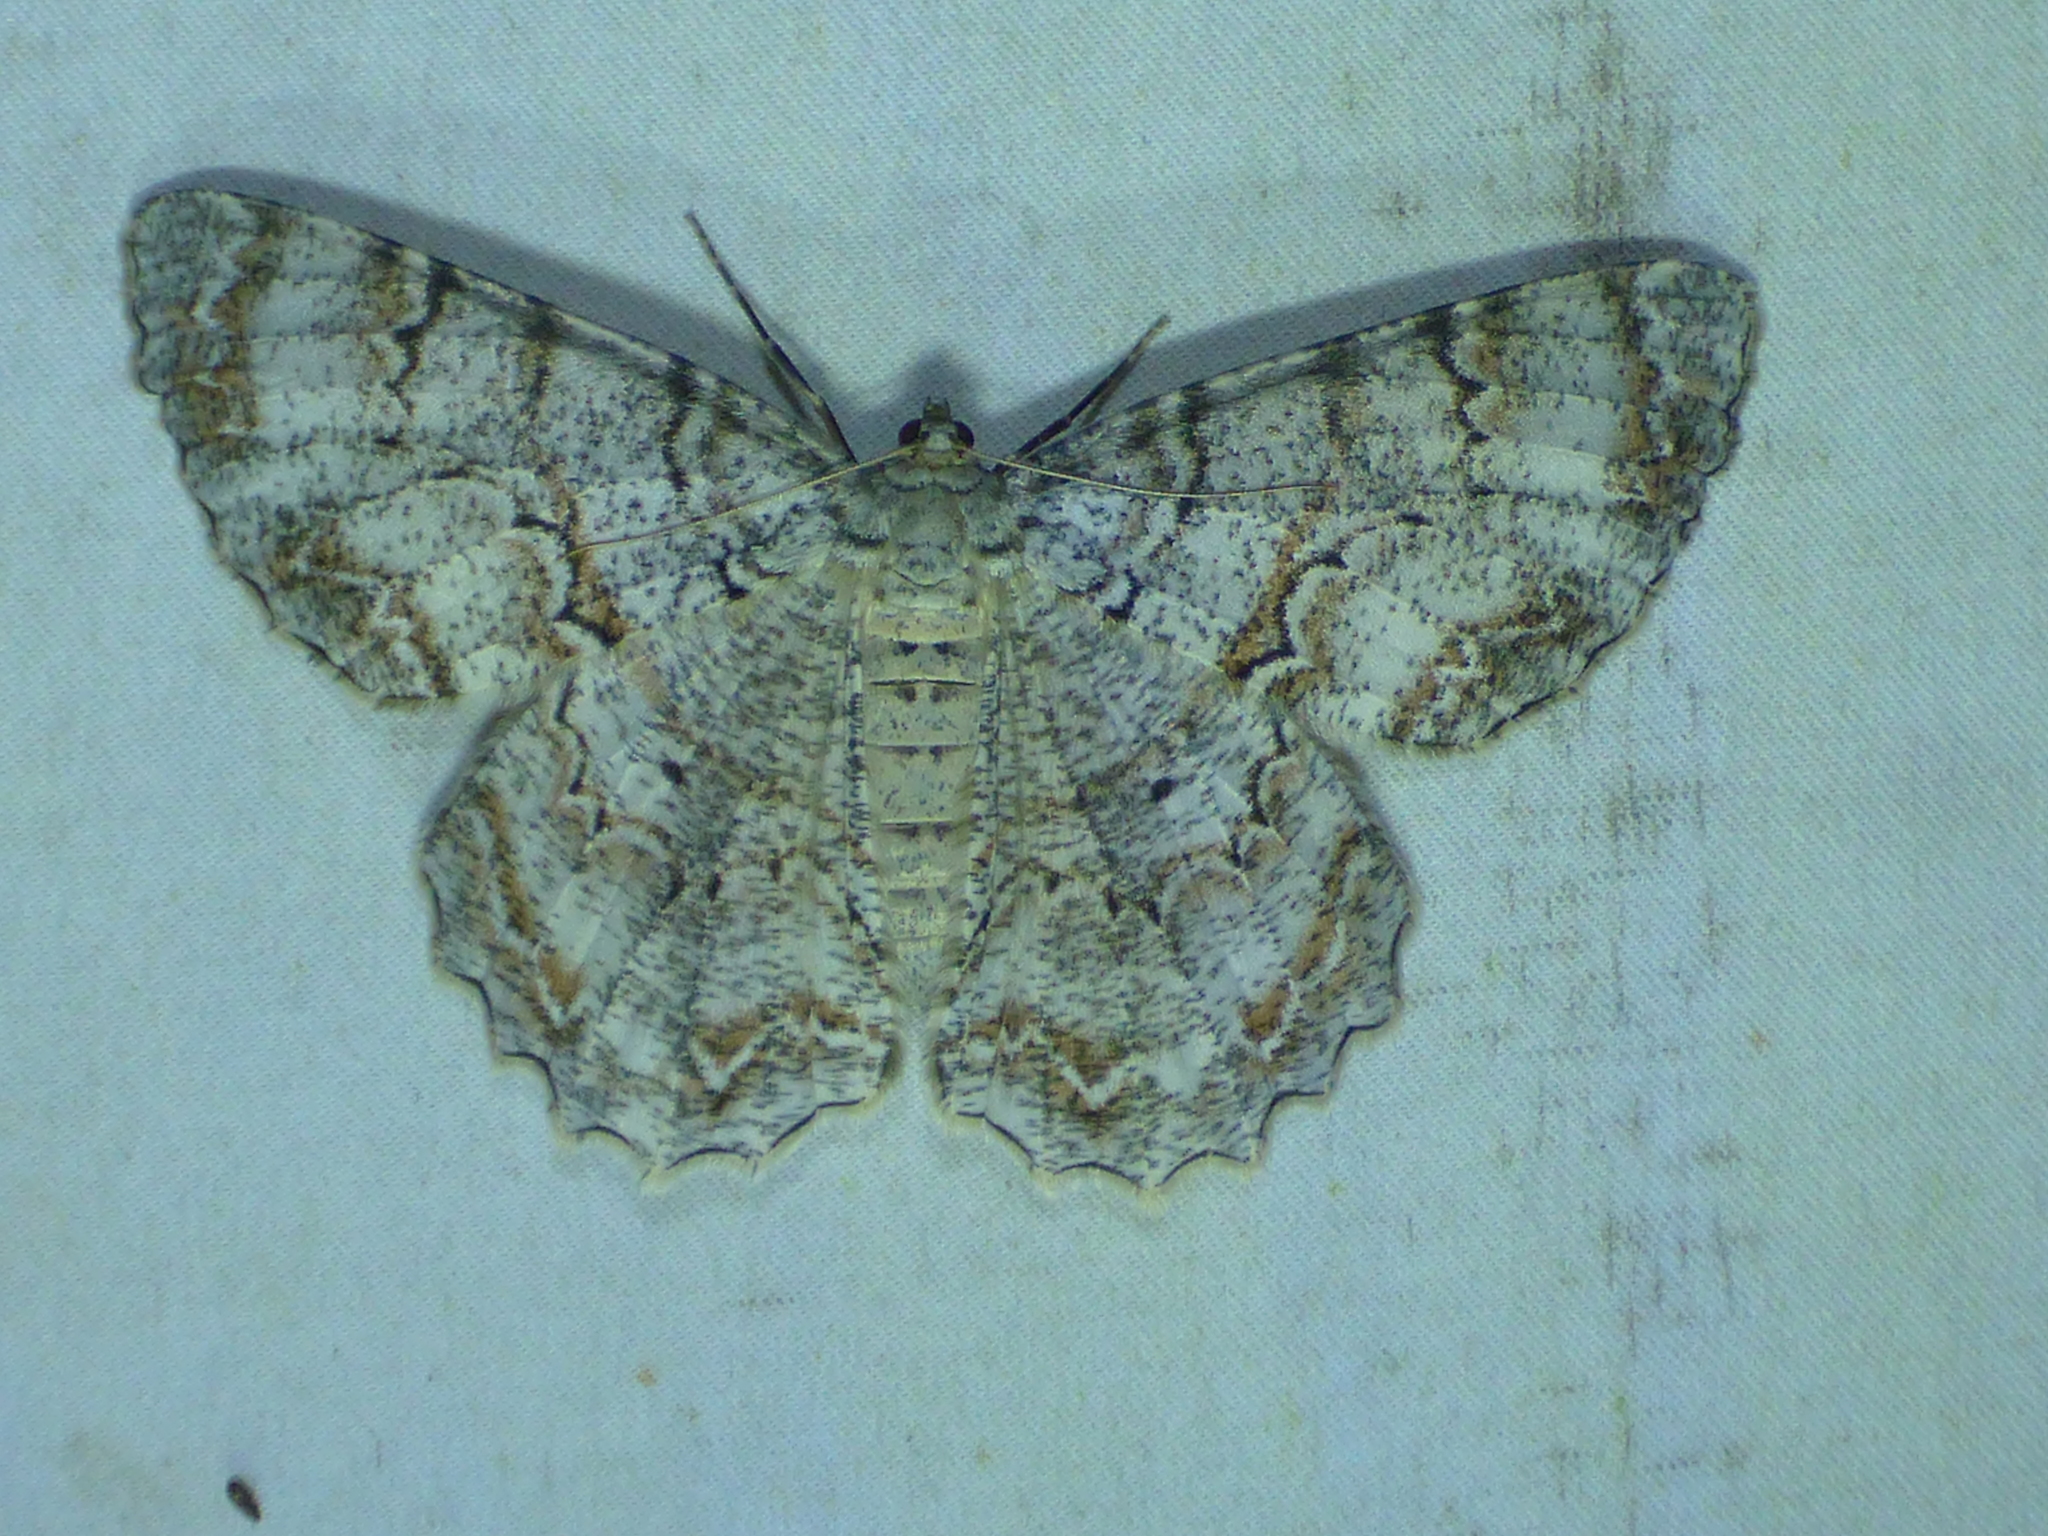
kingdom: Animalia
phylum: Arthropoda
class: Insecta
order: Lepidoptera
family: Geometridae
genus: Epimecis
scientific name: Epimecis hortaria
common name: Tulip-tree beauty
